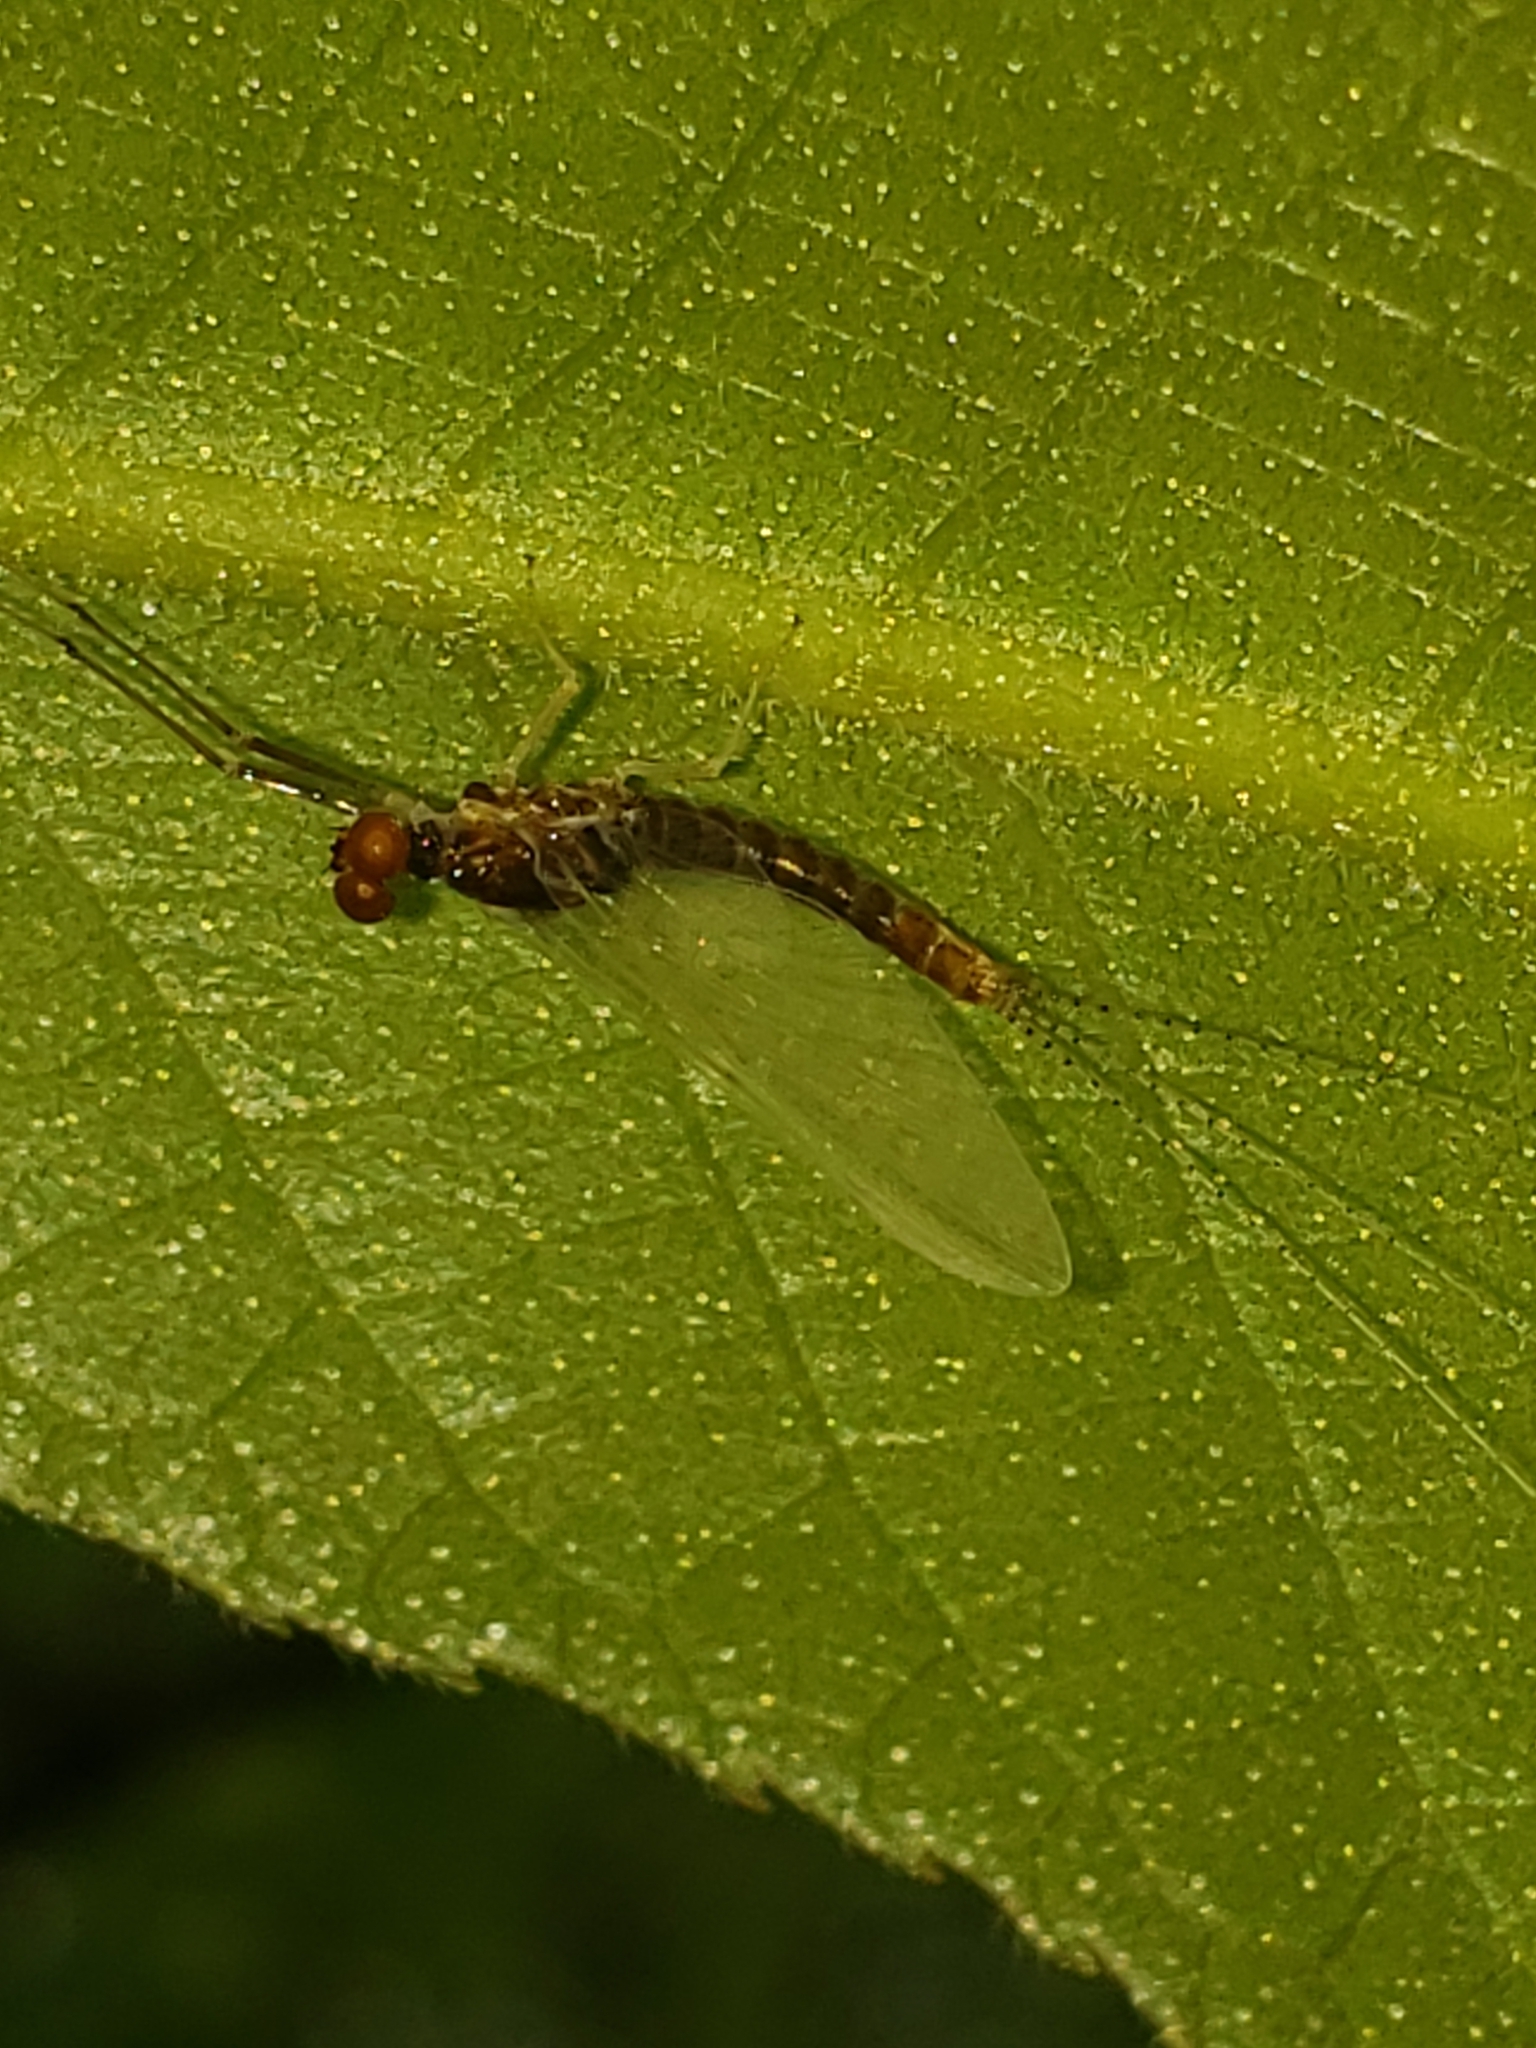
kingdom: Animalia
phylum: Arthropoda
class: Insecta
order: Ephemeroptera
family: Ephemerellidae
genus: Ephemerella
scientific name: Ephemerella needhami
